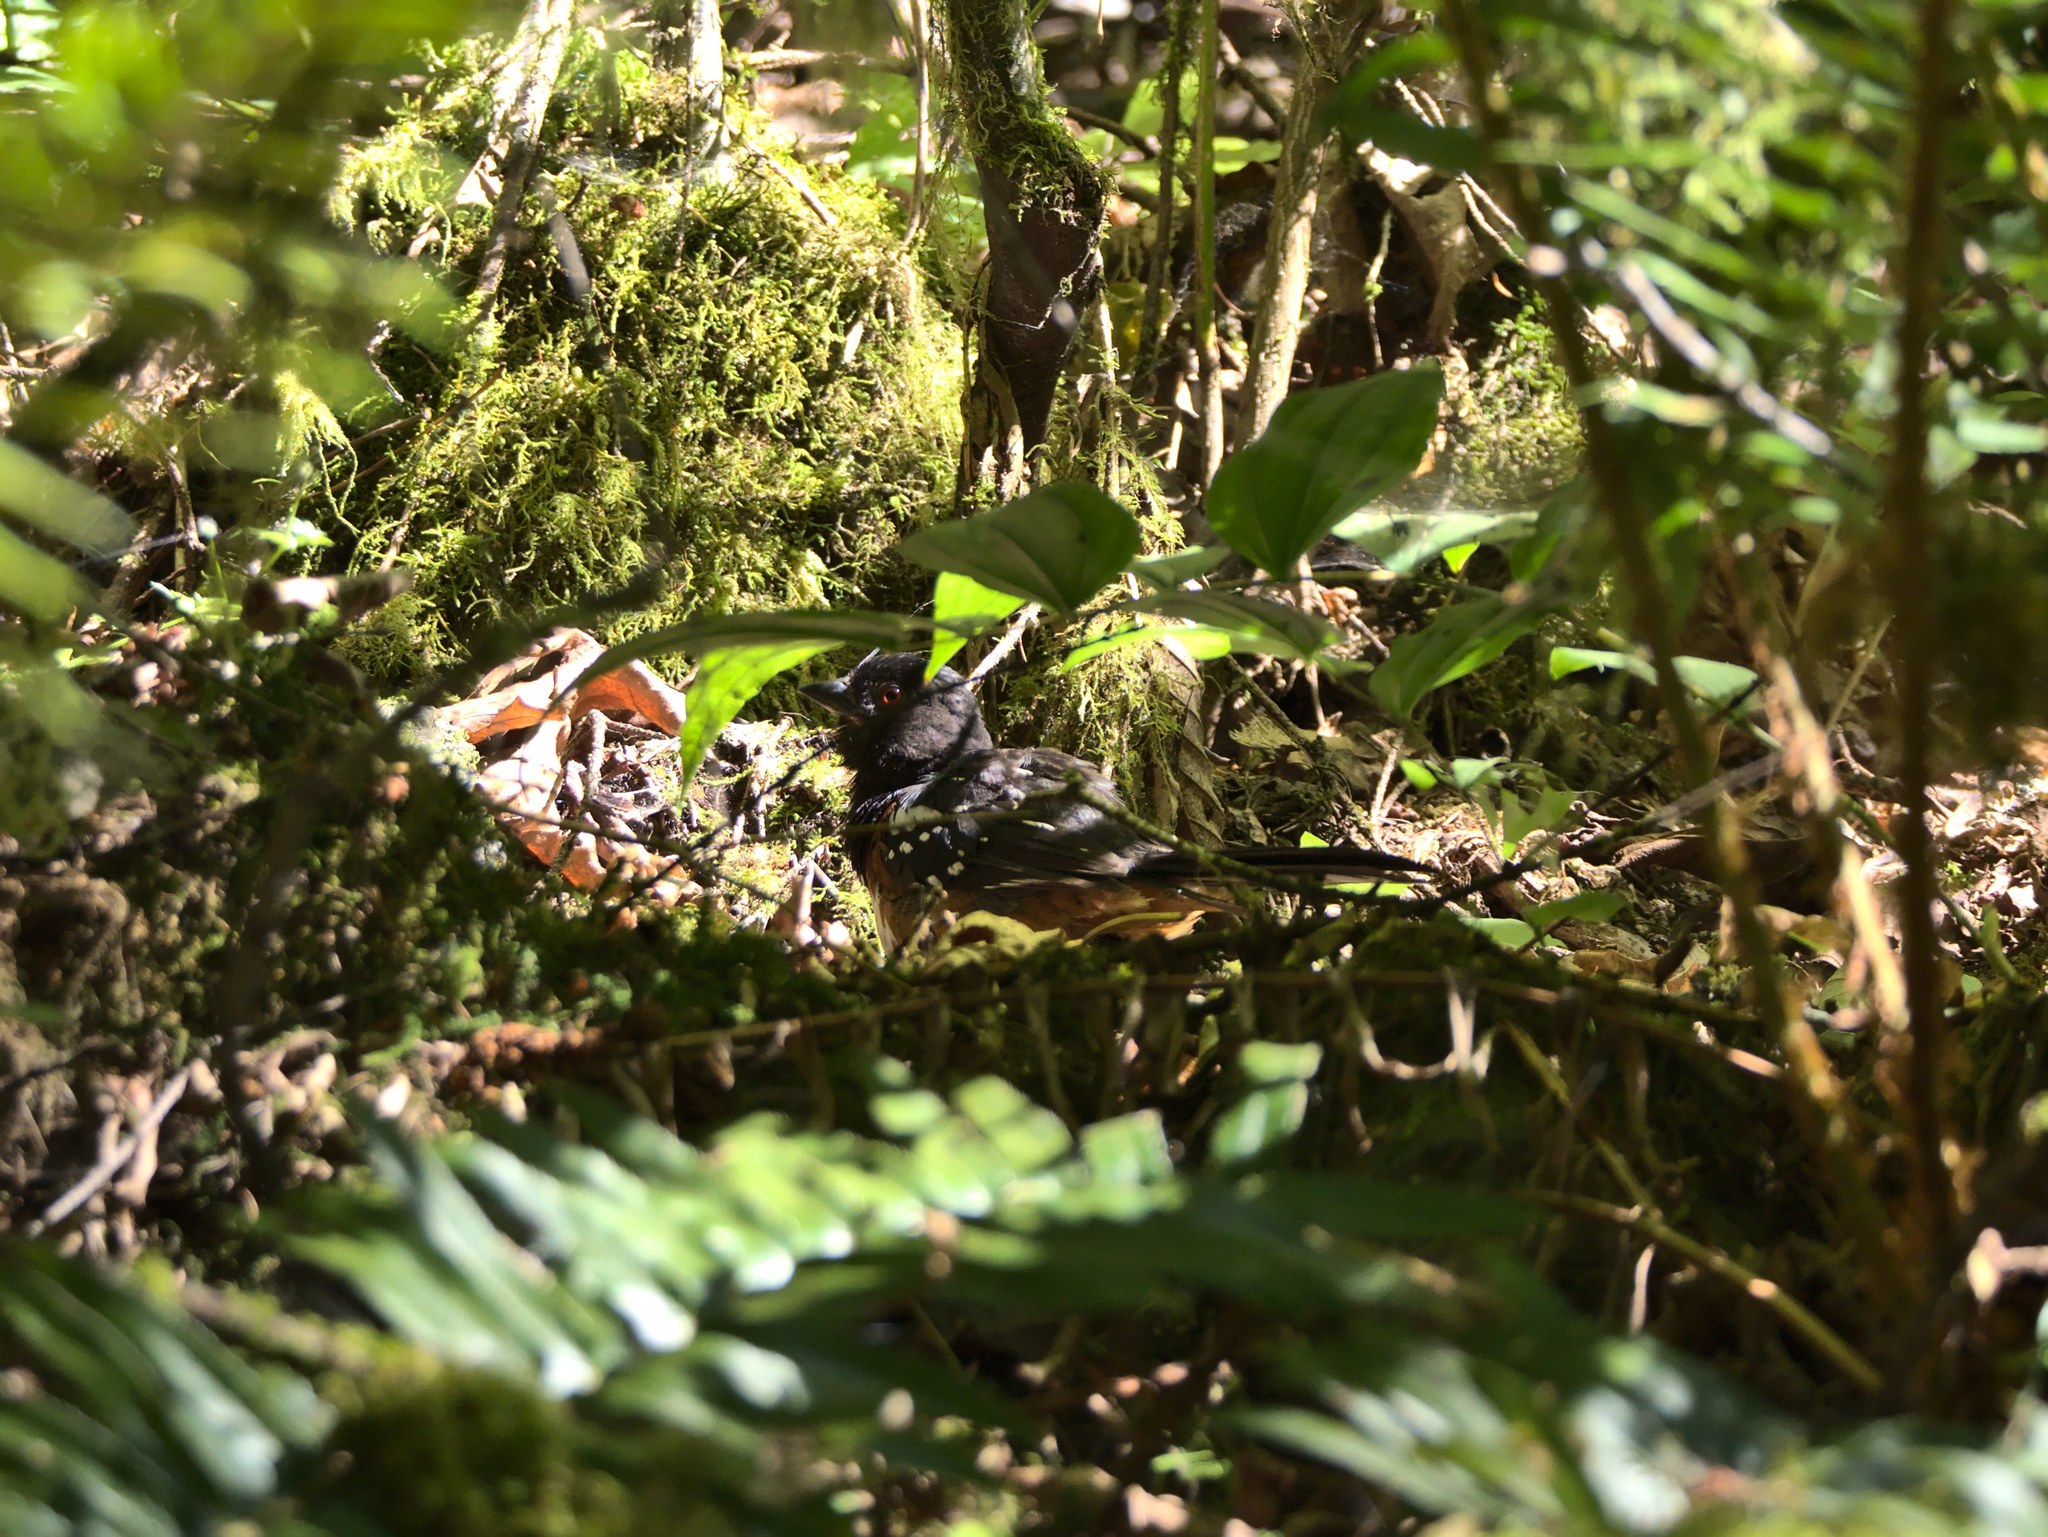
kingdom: Animalia
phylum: Chordata
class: Aves
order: Passeriformes
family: Passerellidae
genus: Pipilo
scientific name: Pipilo maculatus
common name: Spotted towhee
